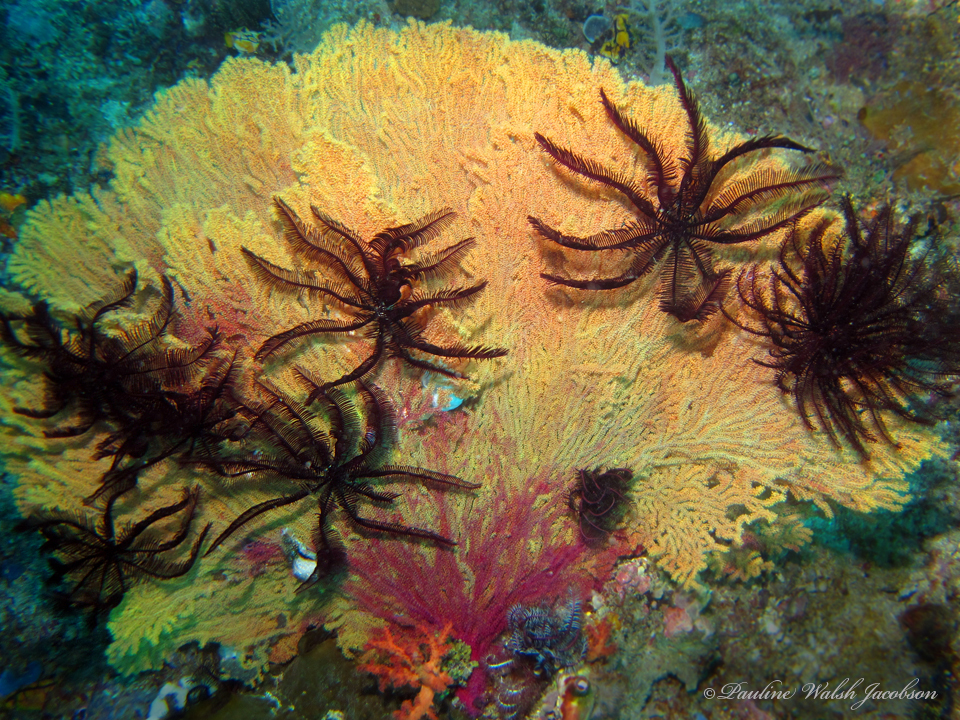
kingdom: Animalia
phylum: Echinodermata
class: Crinoidea
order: Comatulida
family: Colobometridae
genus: Colobometra
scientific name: Colobometra perspinosa
